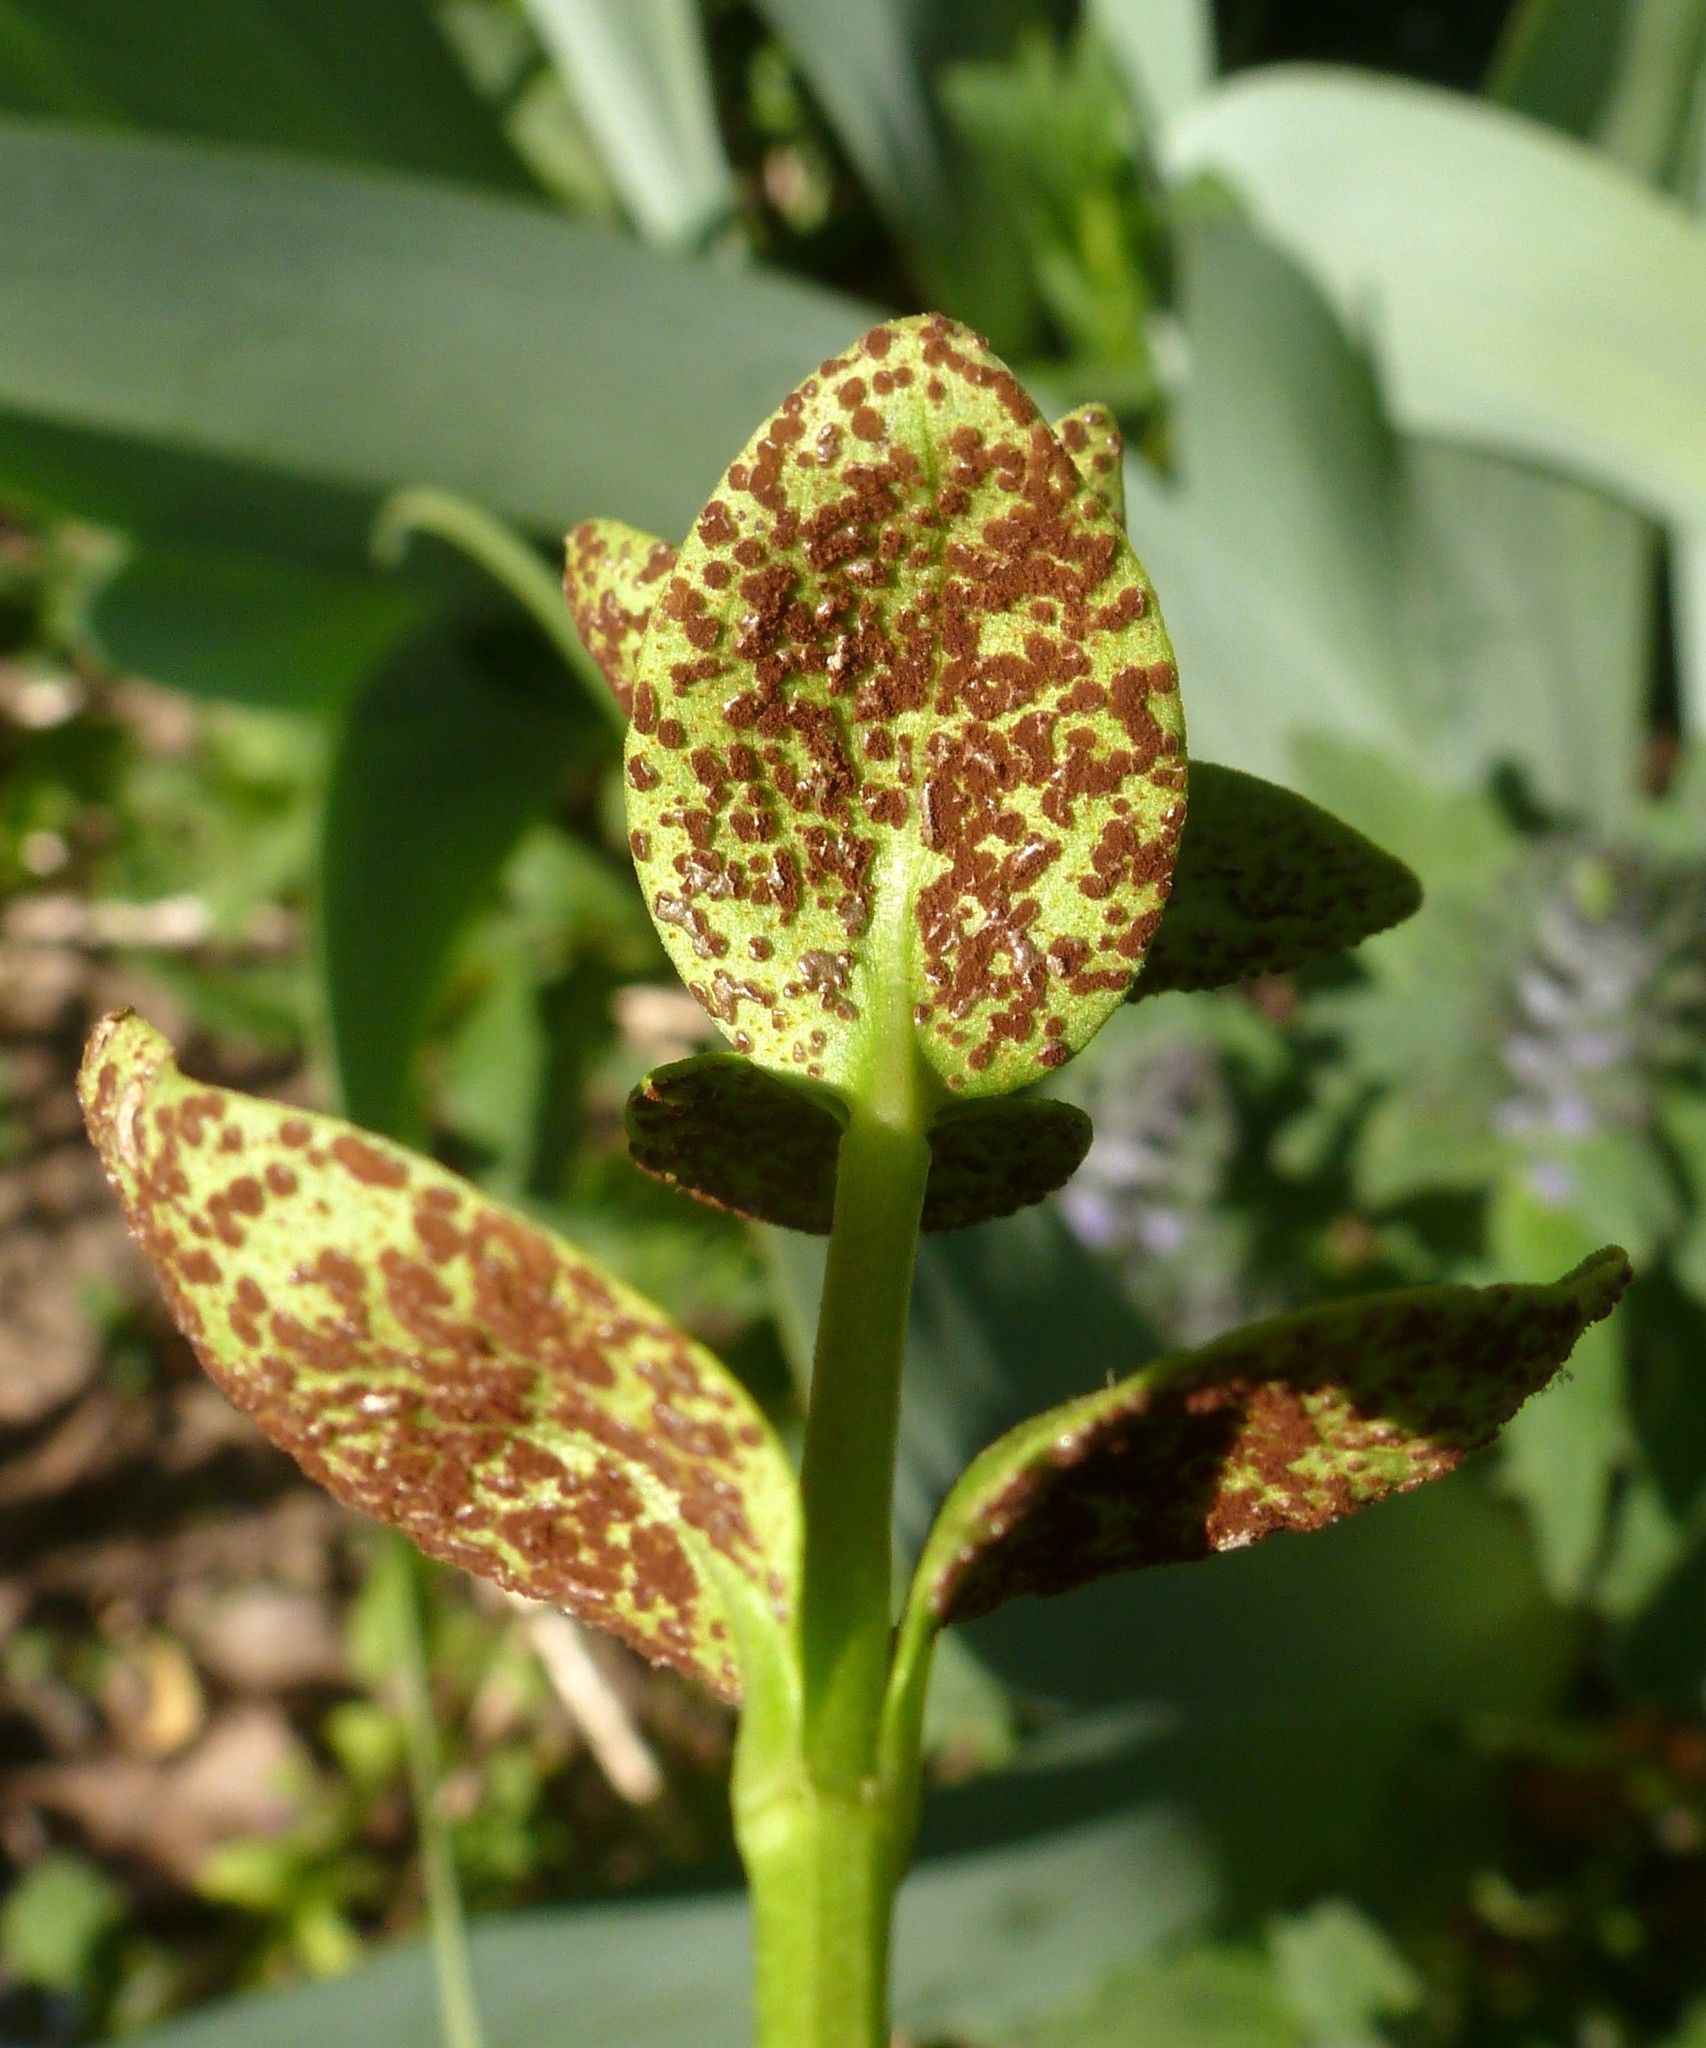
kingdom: Fungi
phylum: Basidiomycota
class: Pucciniomycetes
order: Pucciniales
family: Pucciniaceae
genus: Puccinia
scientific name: Puccinia anatolica
